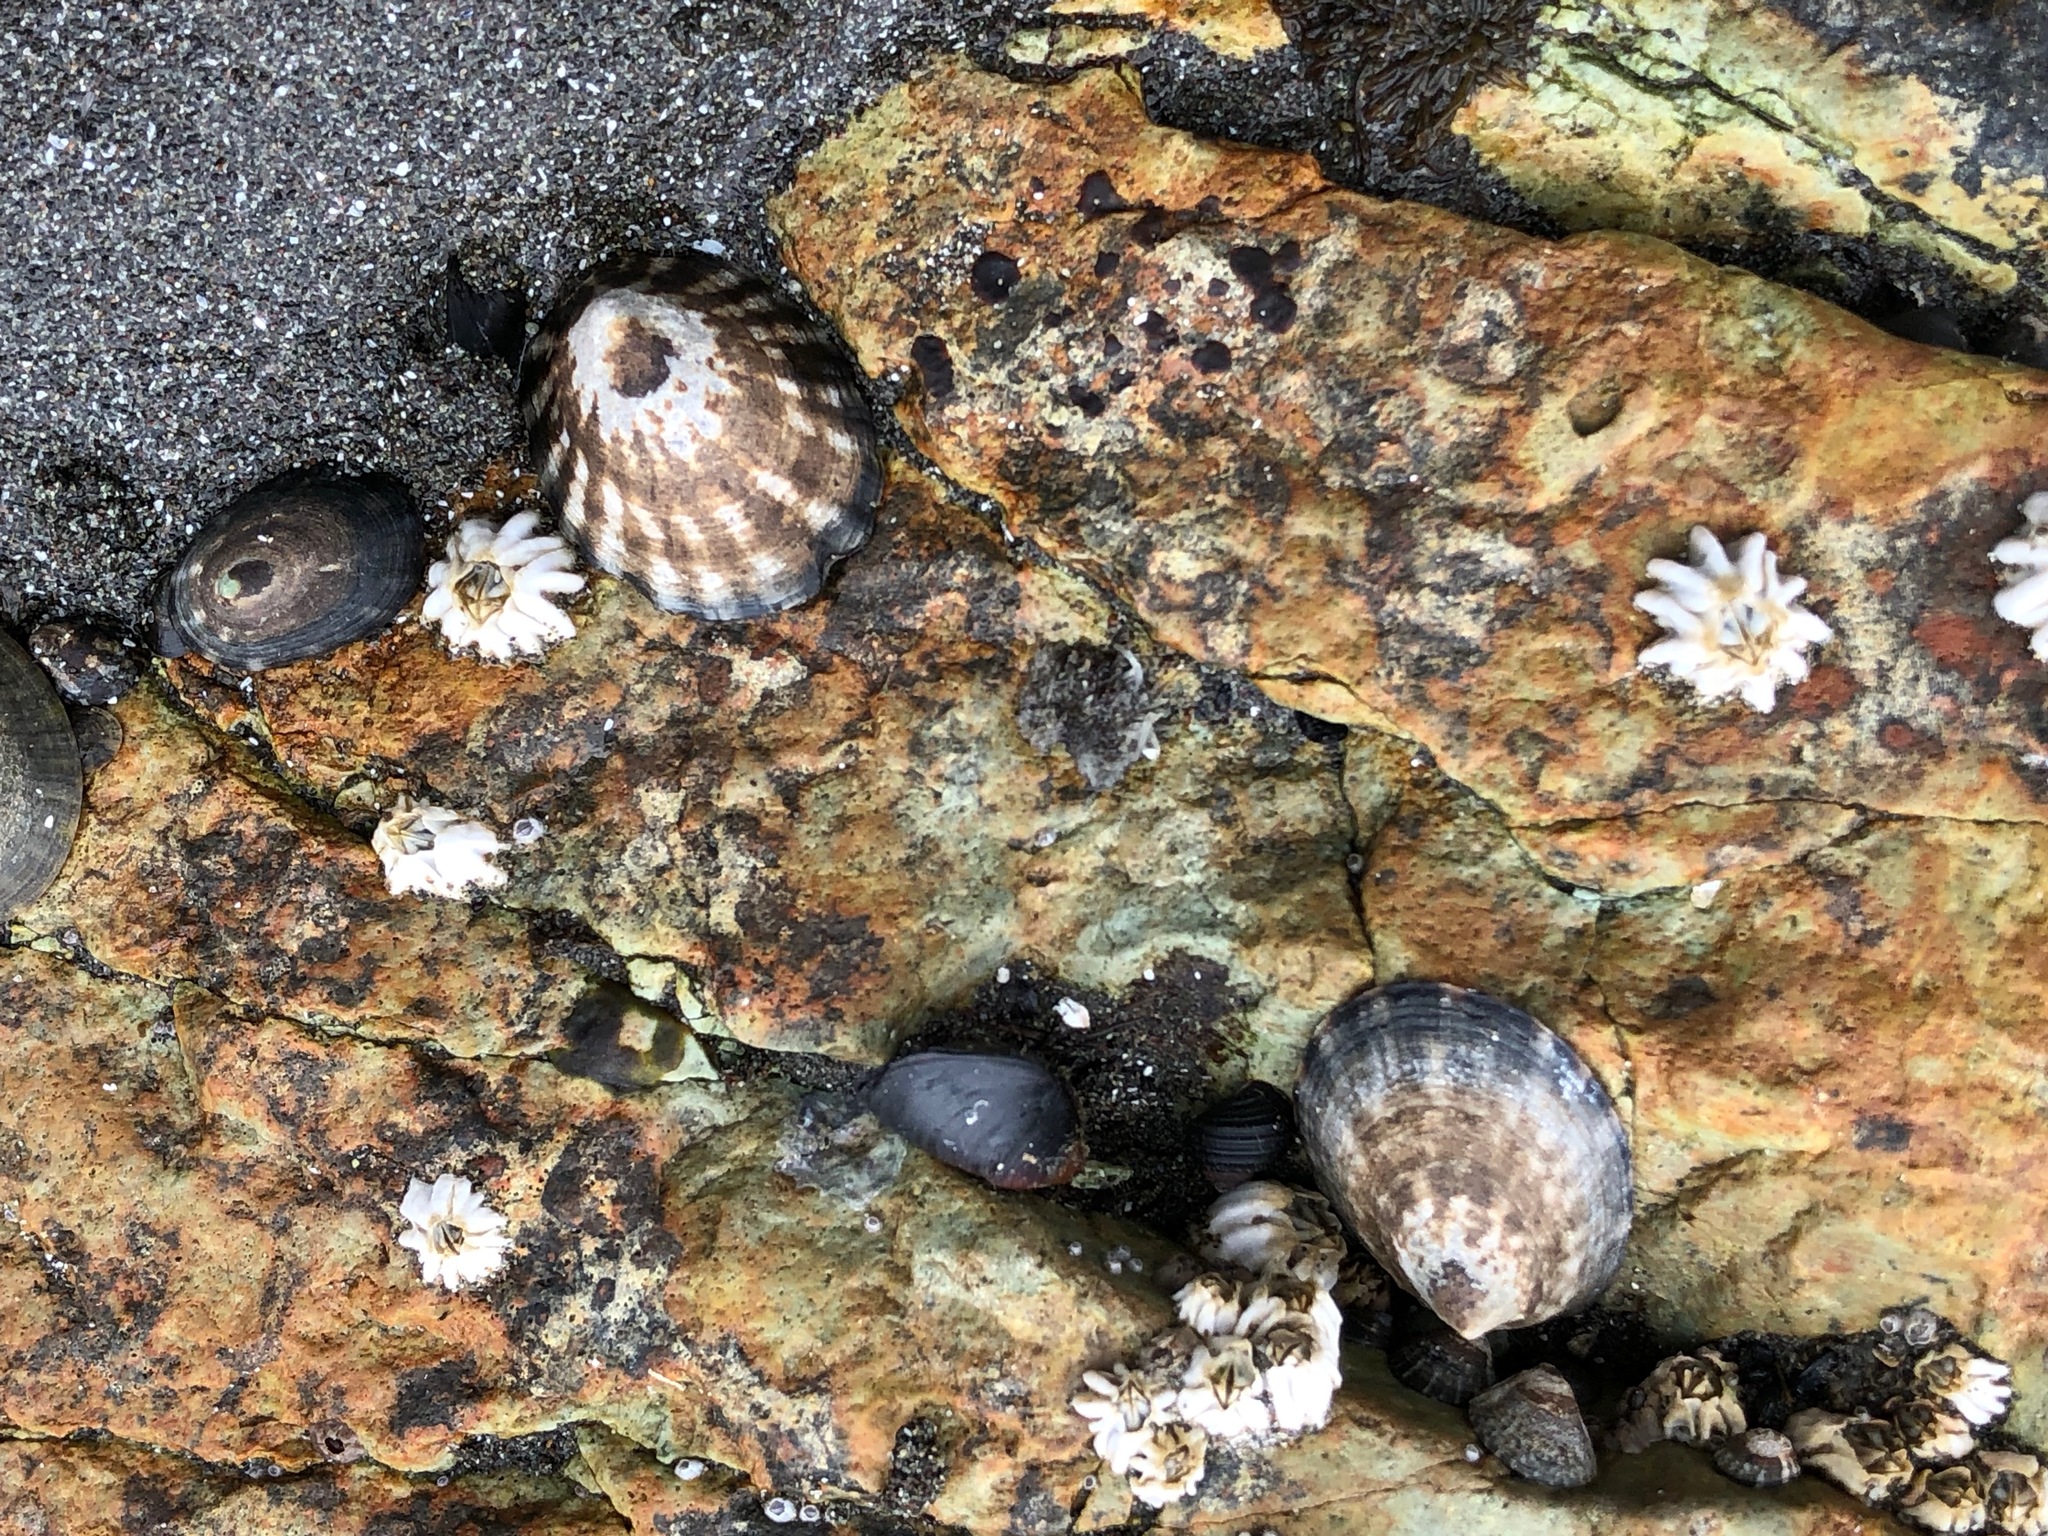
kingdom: Animalia
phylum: Mollusca
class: Gastropoda
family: Lottiidae
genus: Lottia
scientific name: Lottia pelta
